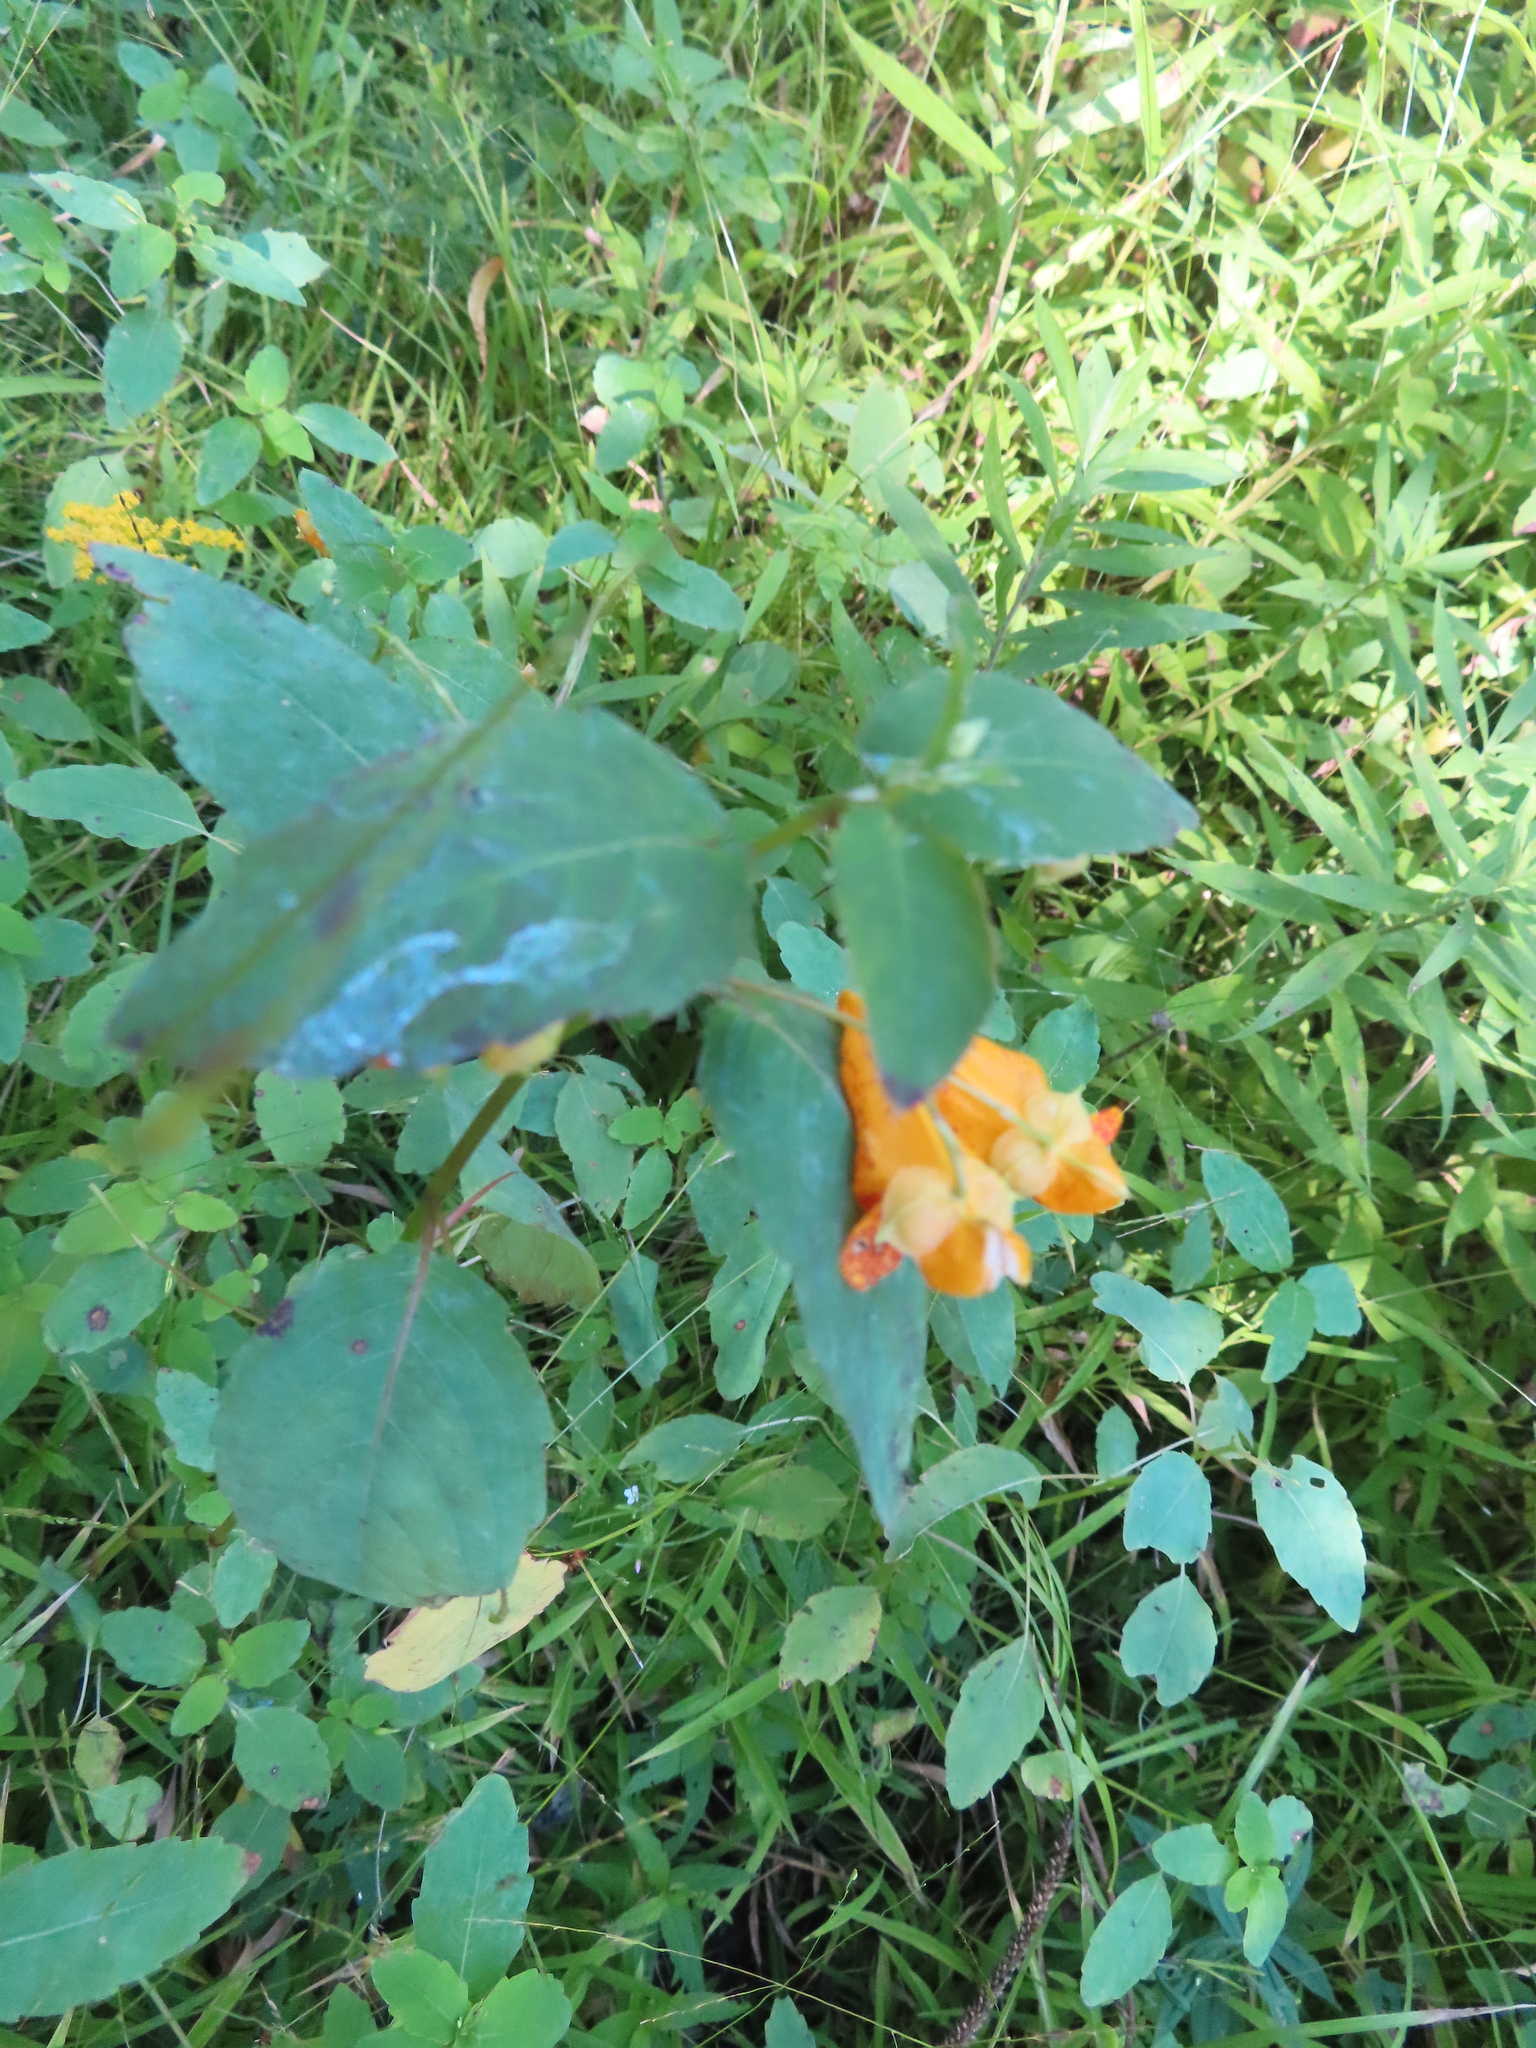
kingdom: Plantae
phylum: Tracheophyta
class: Magnoliopsida
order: Ericales
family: Balsaminaceae
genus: Impatiens
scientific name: Impatiens capensis
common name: Orange balsam
